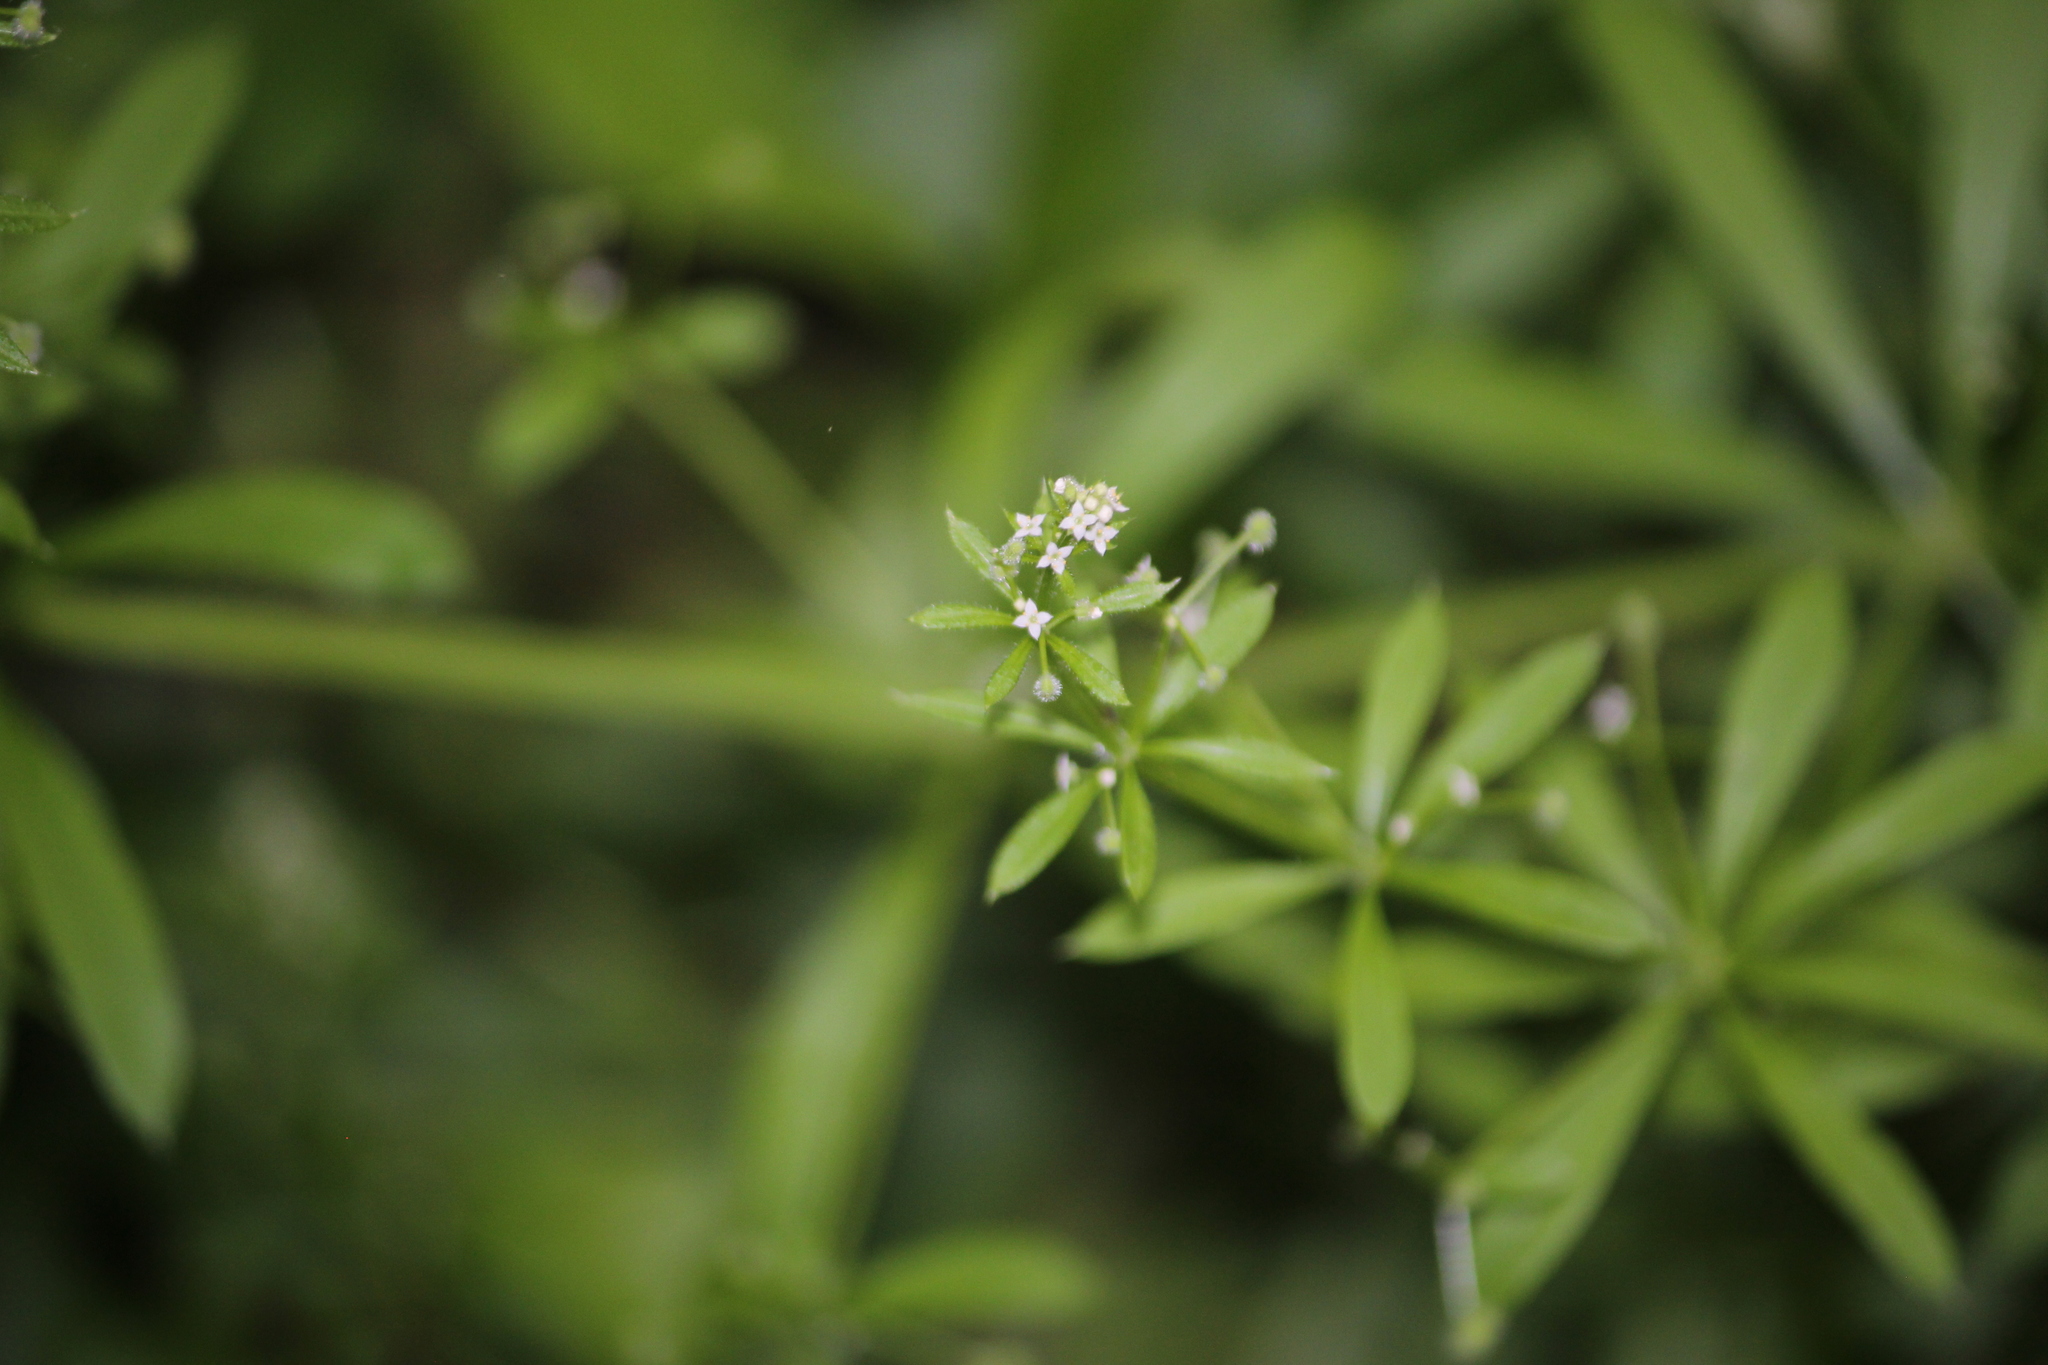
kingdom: Plantae
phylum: Tracheophyta
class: Magnoliopsida
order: Gentianales
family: Rubiaceae
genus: Galium
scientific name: Galium aparine
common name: Cleavers
